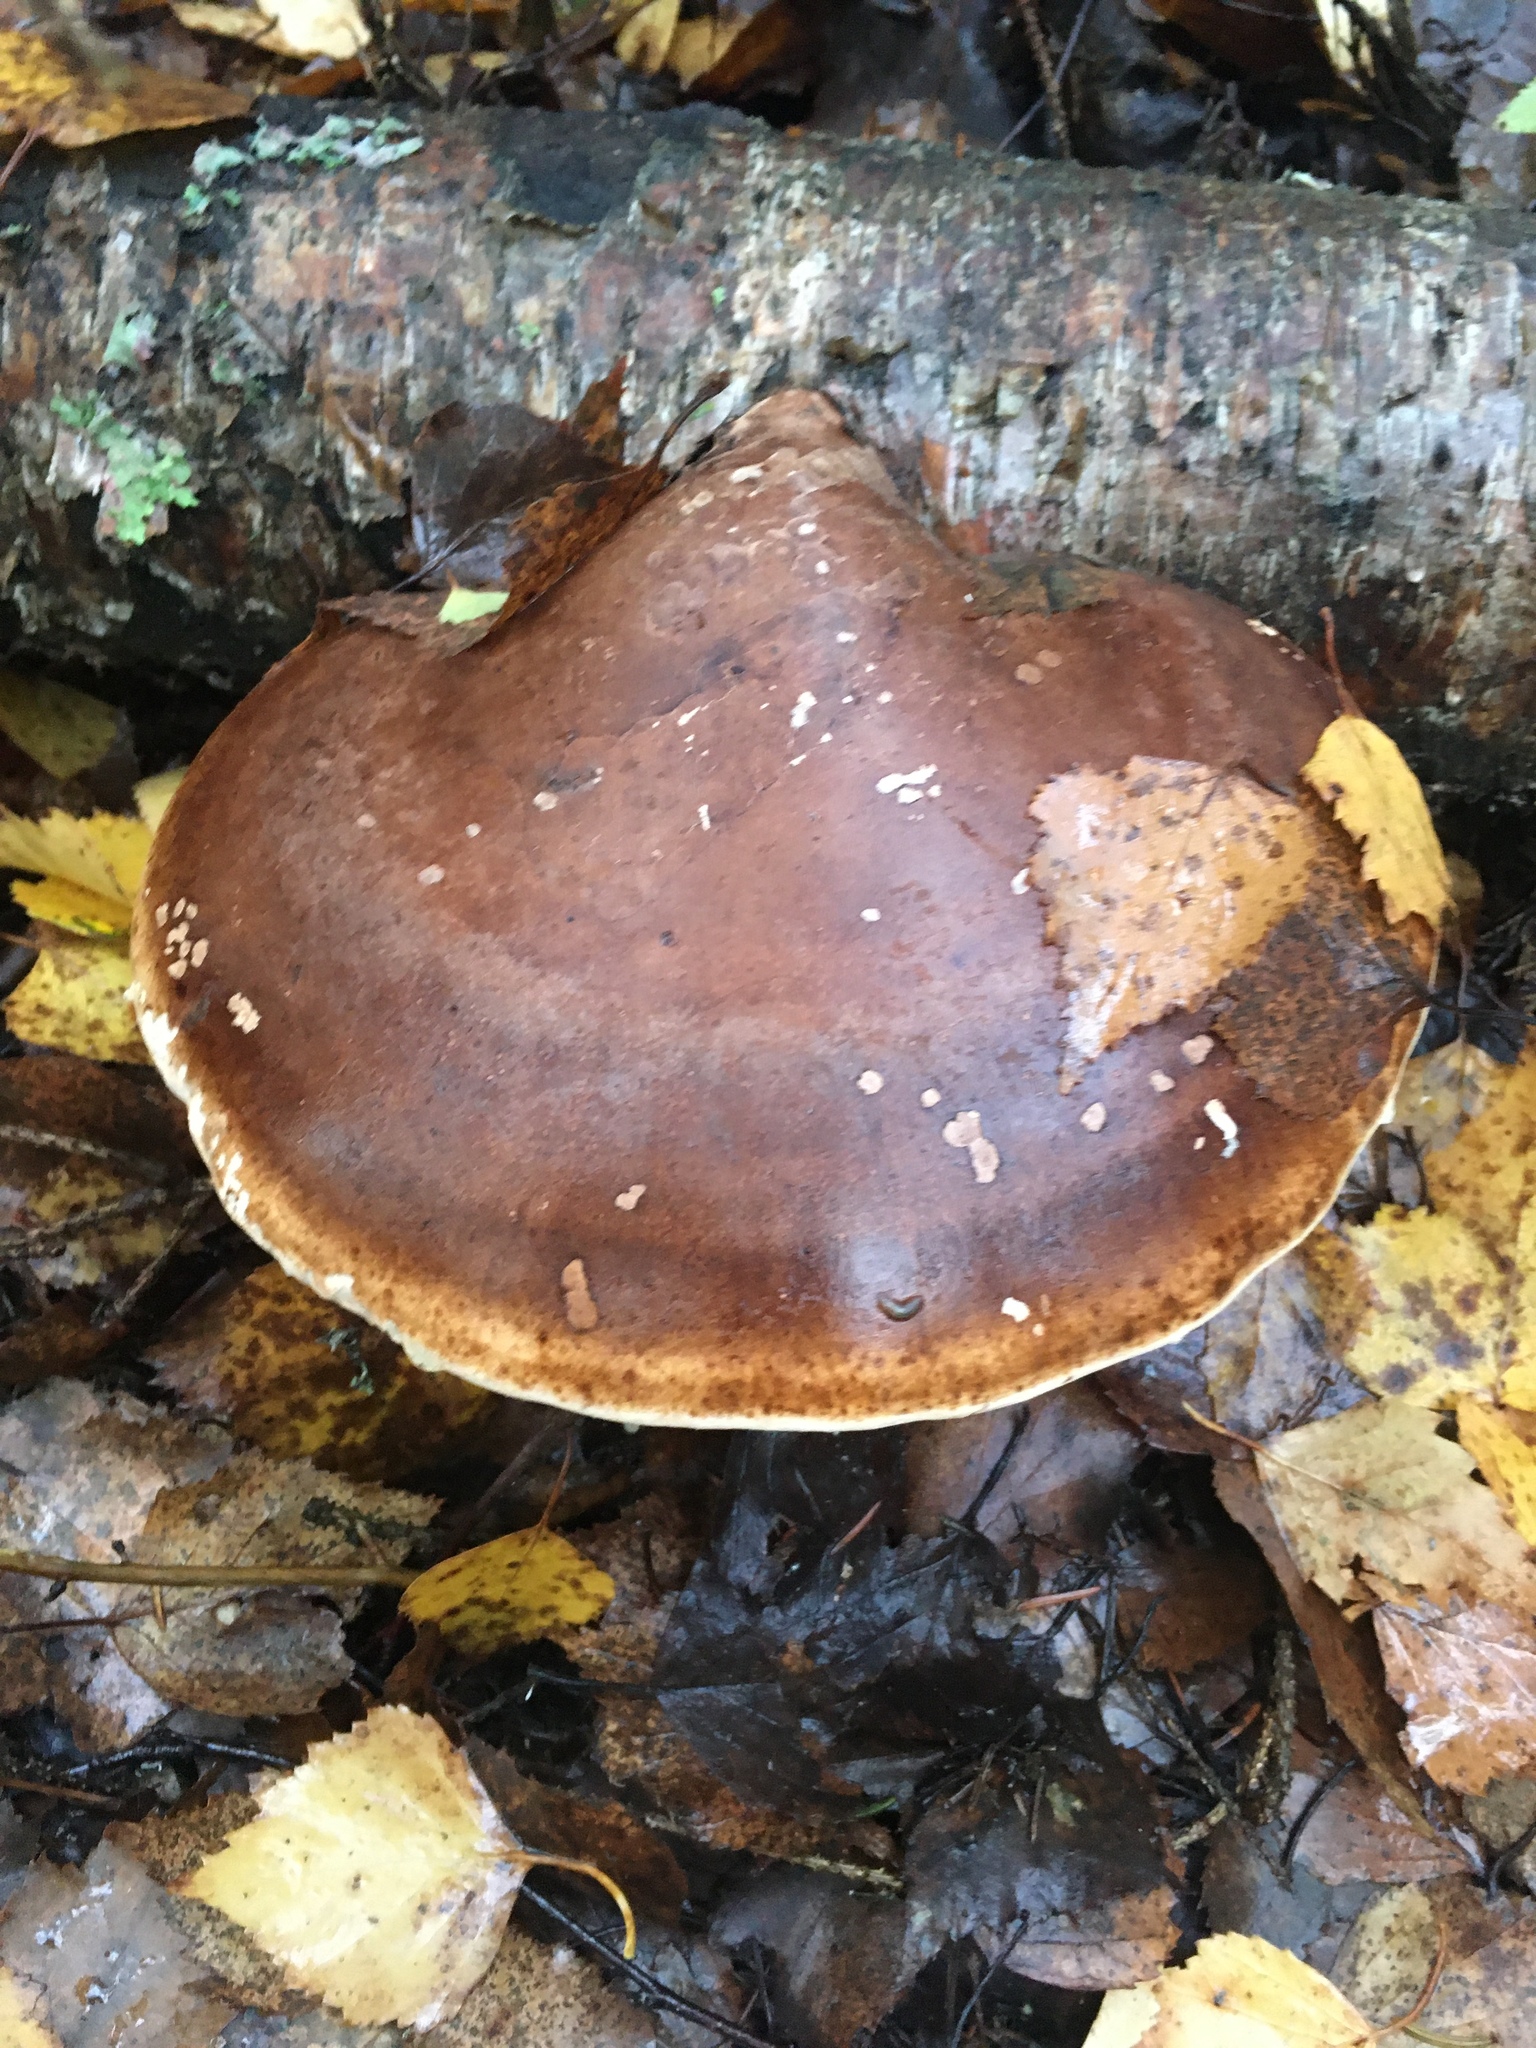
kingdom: Fungi
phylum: Basidiomycota
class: Agaricomycetes
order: Polyporales
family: Fomitopsidaceae
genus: Fomitopsis
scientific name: Fomitopsis betulina
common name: Birch polypore
